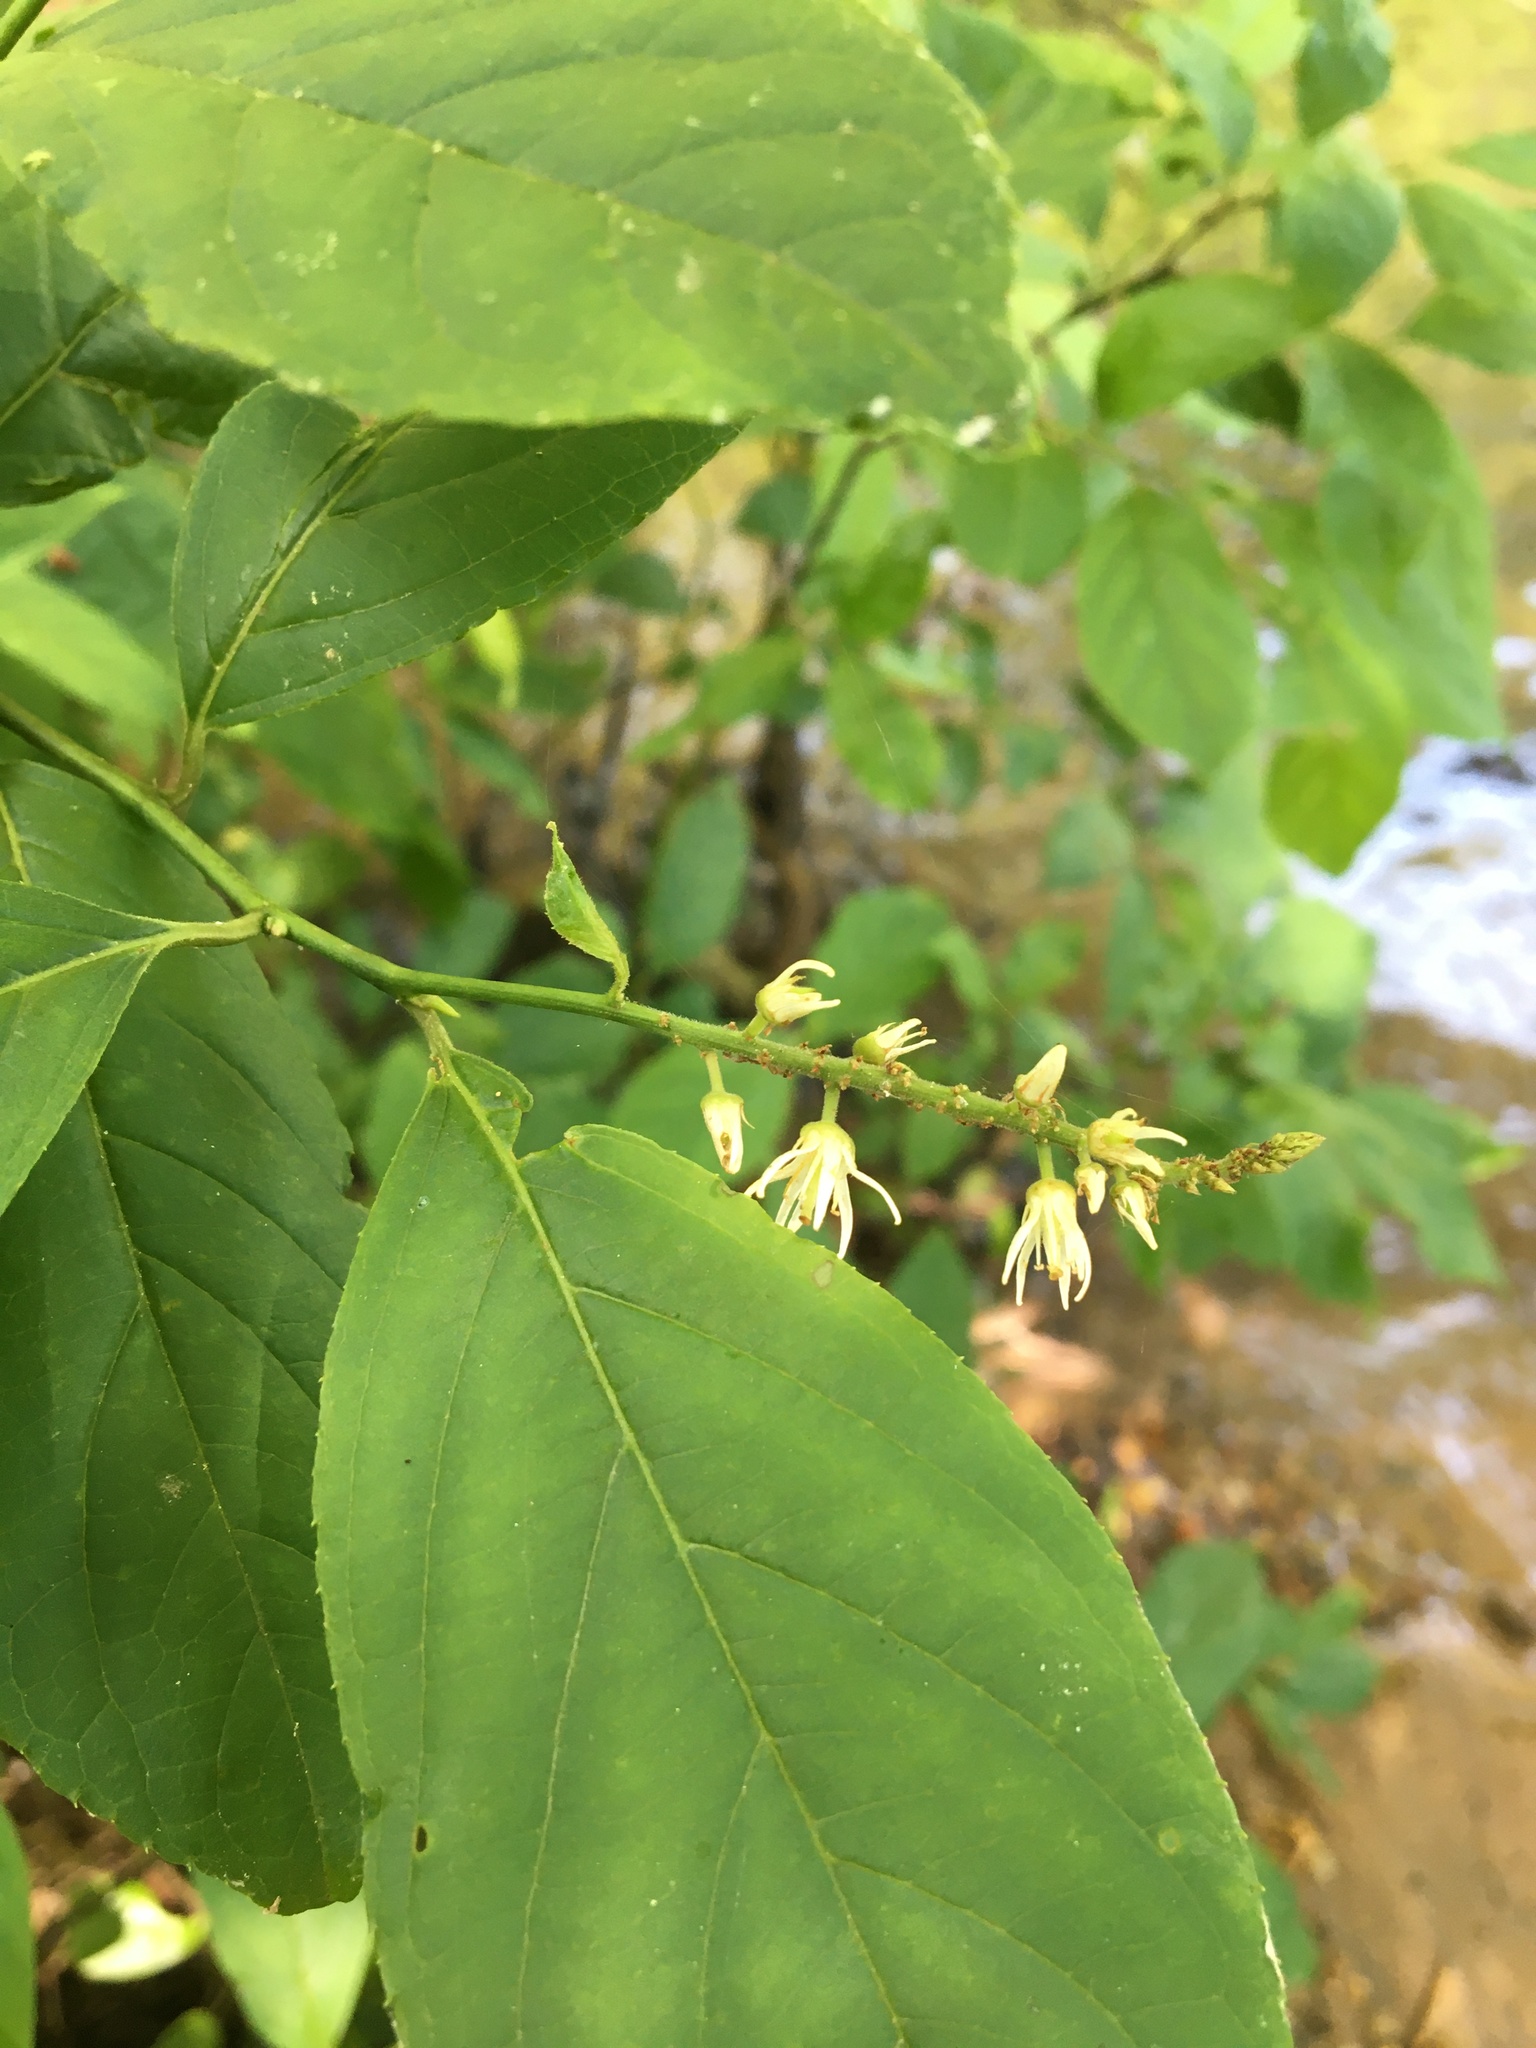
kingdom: Plantae
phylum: Tracheophyta
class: Magnoliopsida
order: Saxifragales
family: Iteaceae
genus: Itea
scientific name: Itea virginica
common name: Sweetspire
